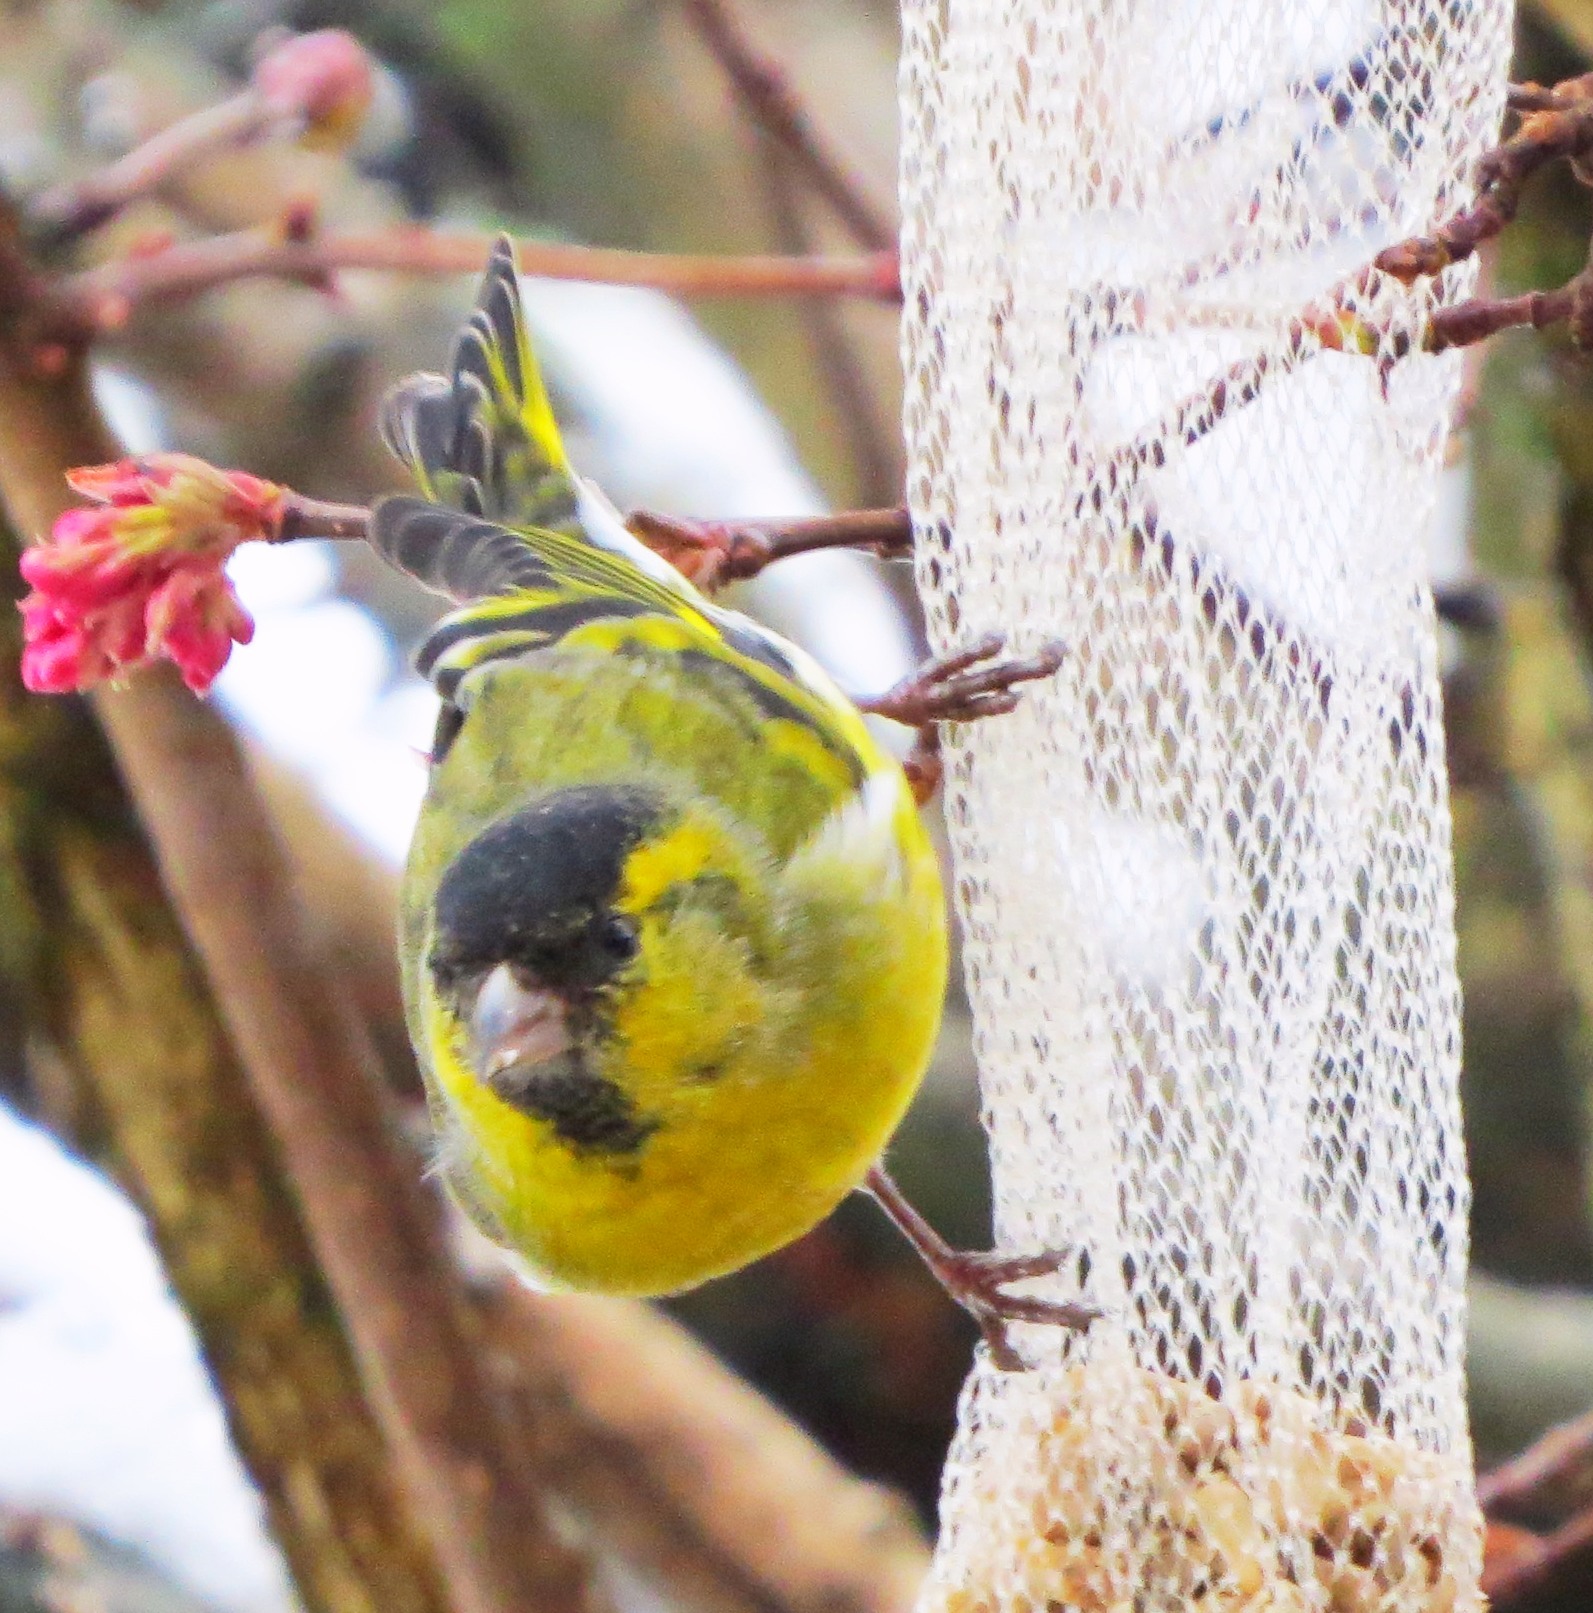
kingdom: Animalia
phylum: Chordata
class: Aves
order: Passeriformes
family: Fringillidae
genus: Spinus
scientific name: Spinus spinus
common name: Eurasian siskin
